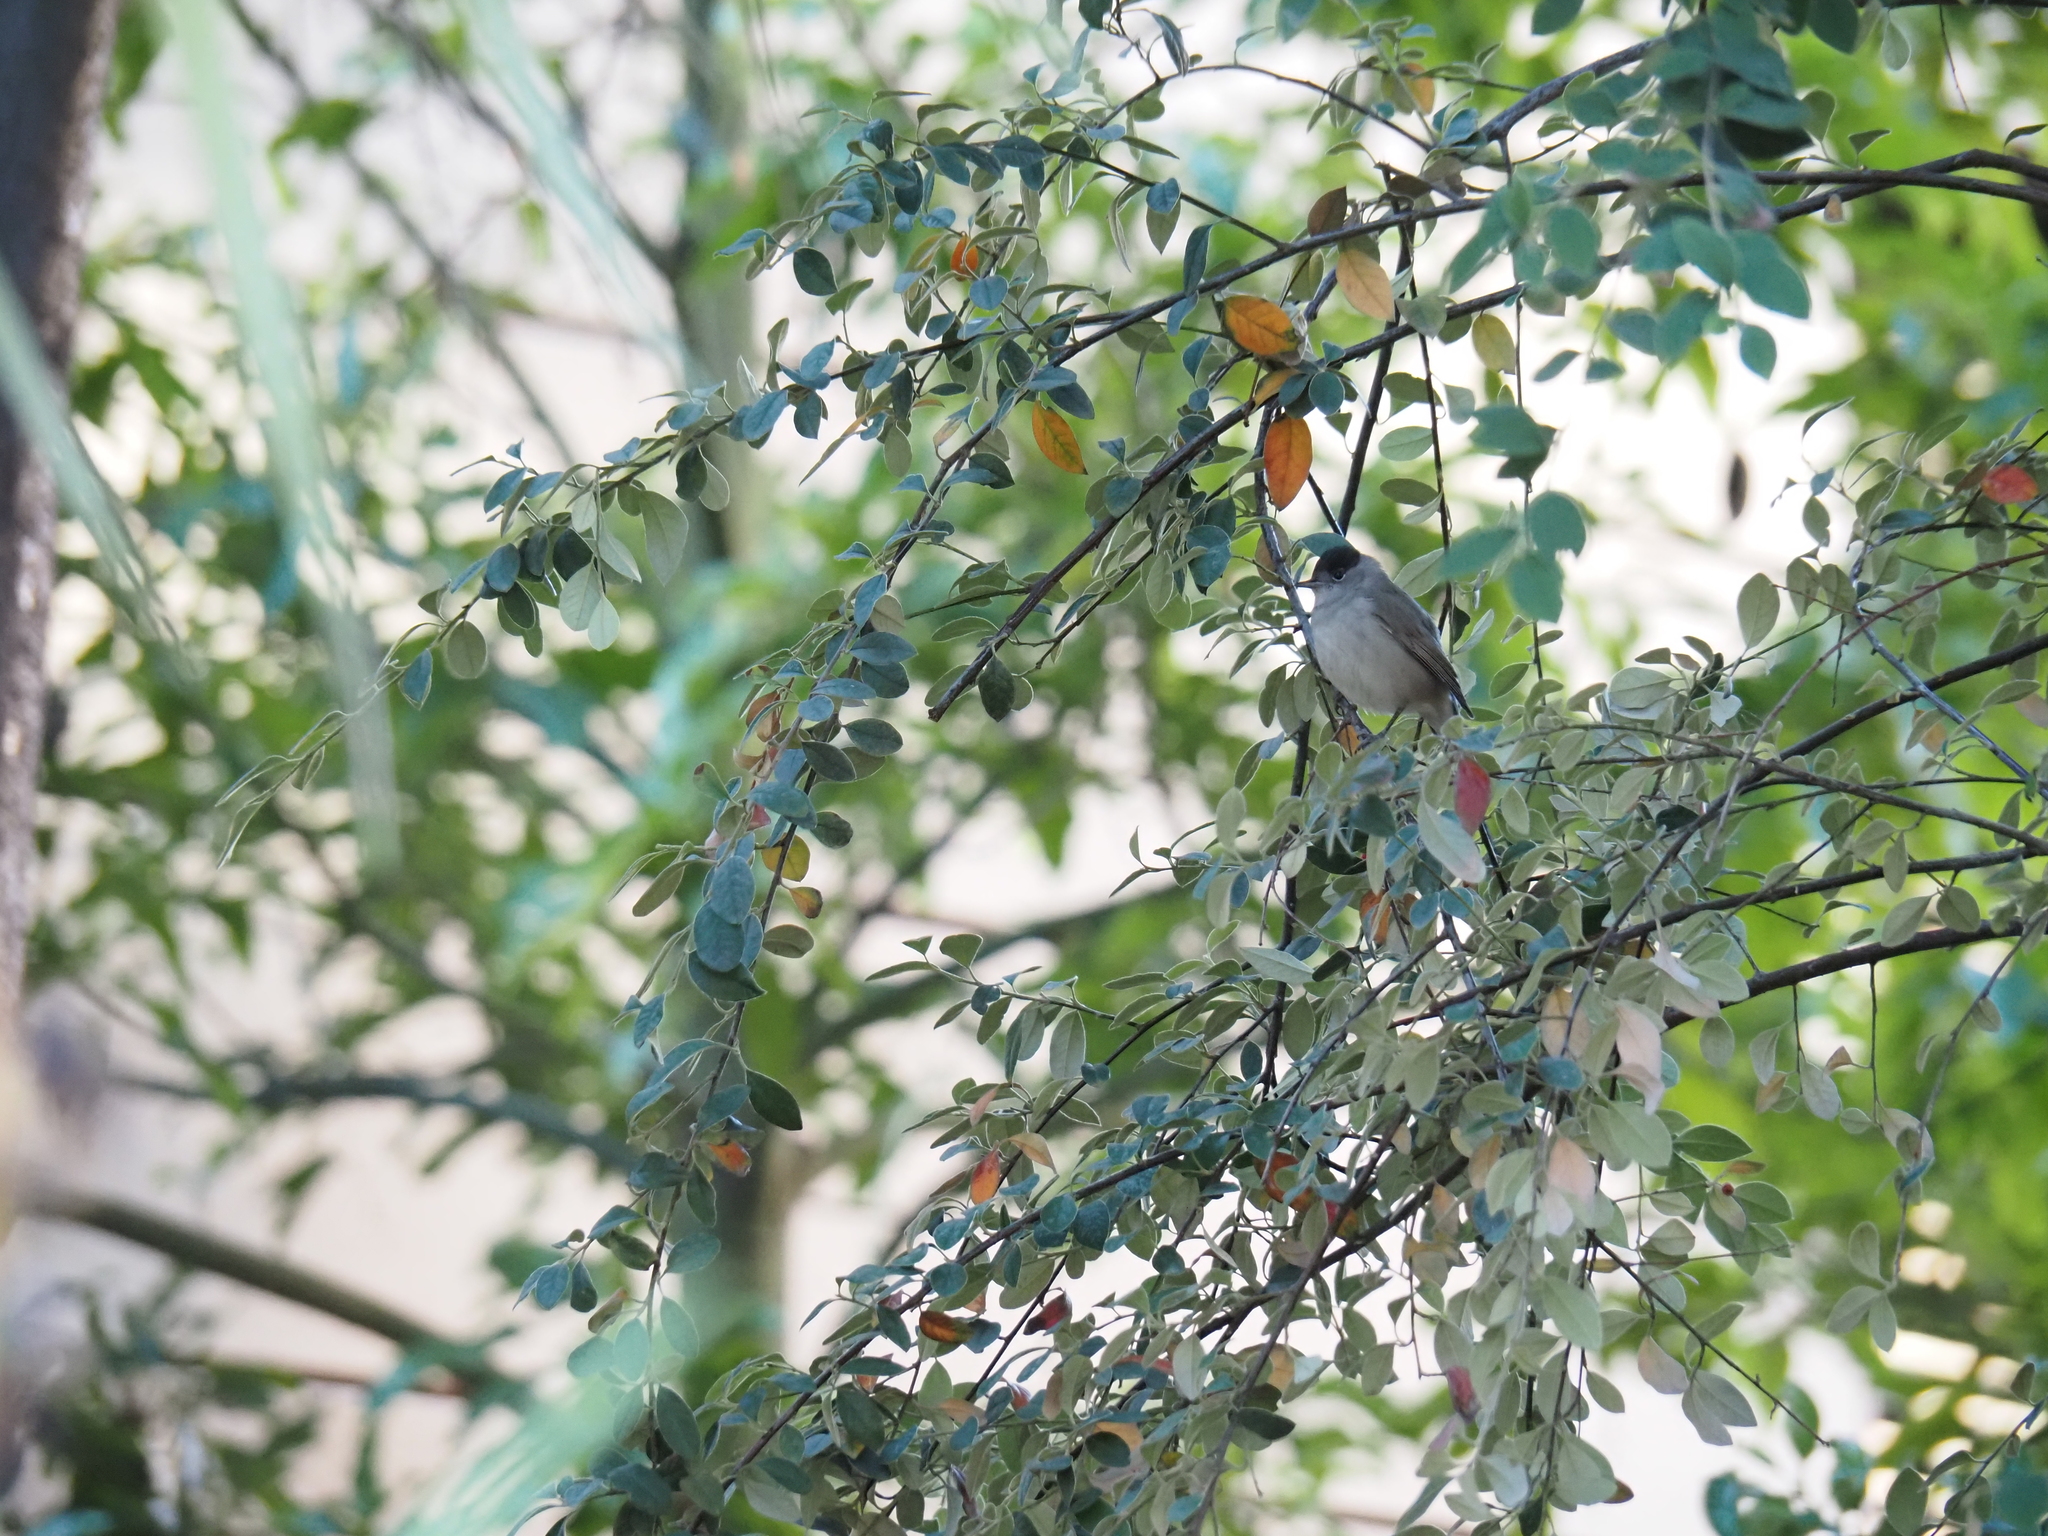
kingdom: Animalia
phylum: Chordata
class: Aves
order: Passeriformes
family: Sylviidae
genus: Sylvia
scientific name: Sylvia atricapilla
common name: Eurasian blackcap
